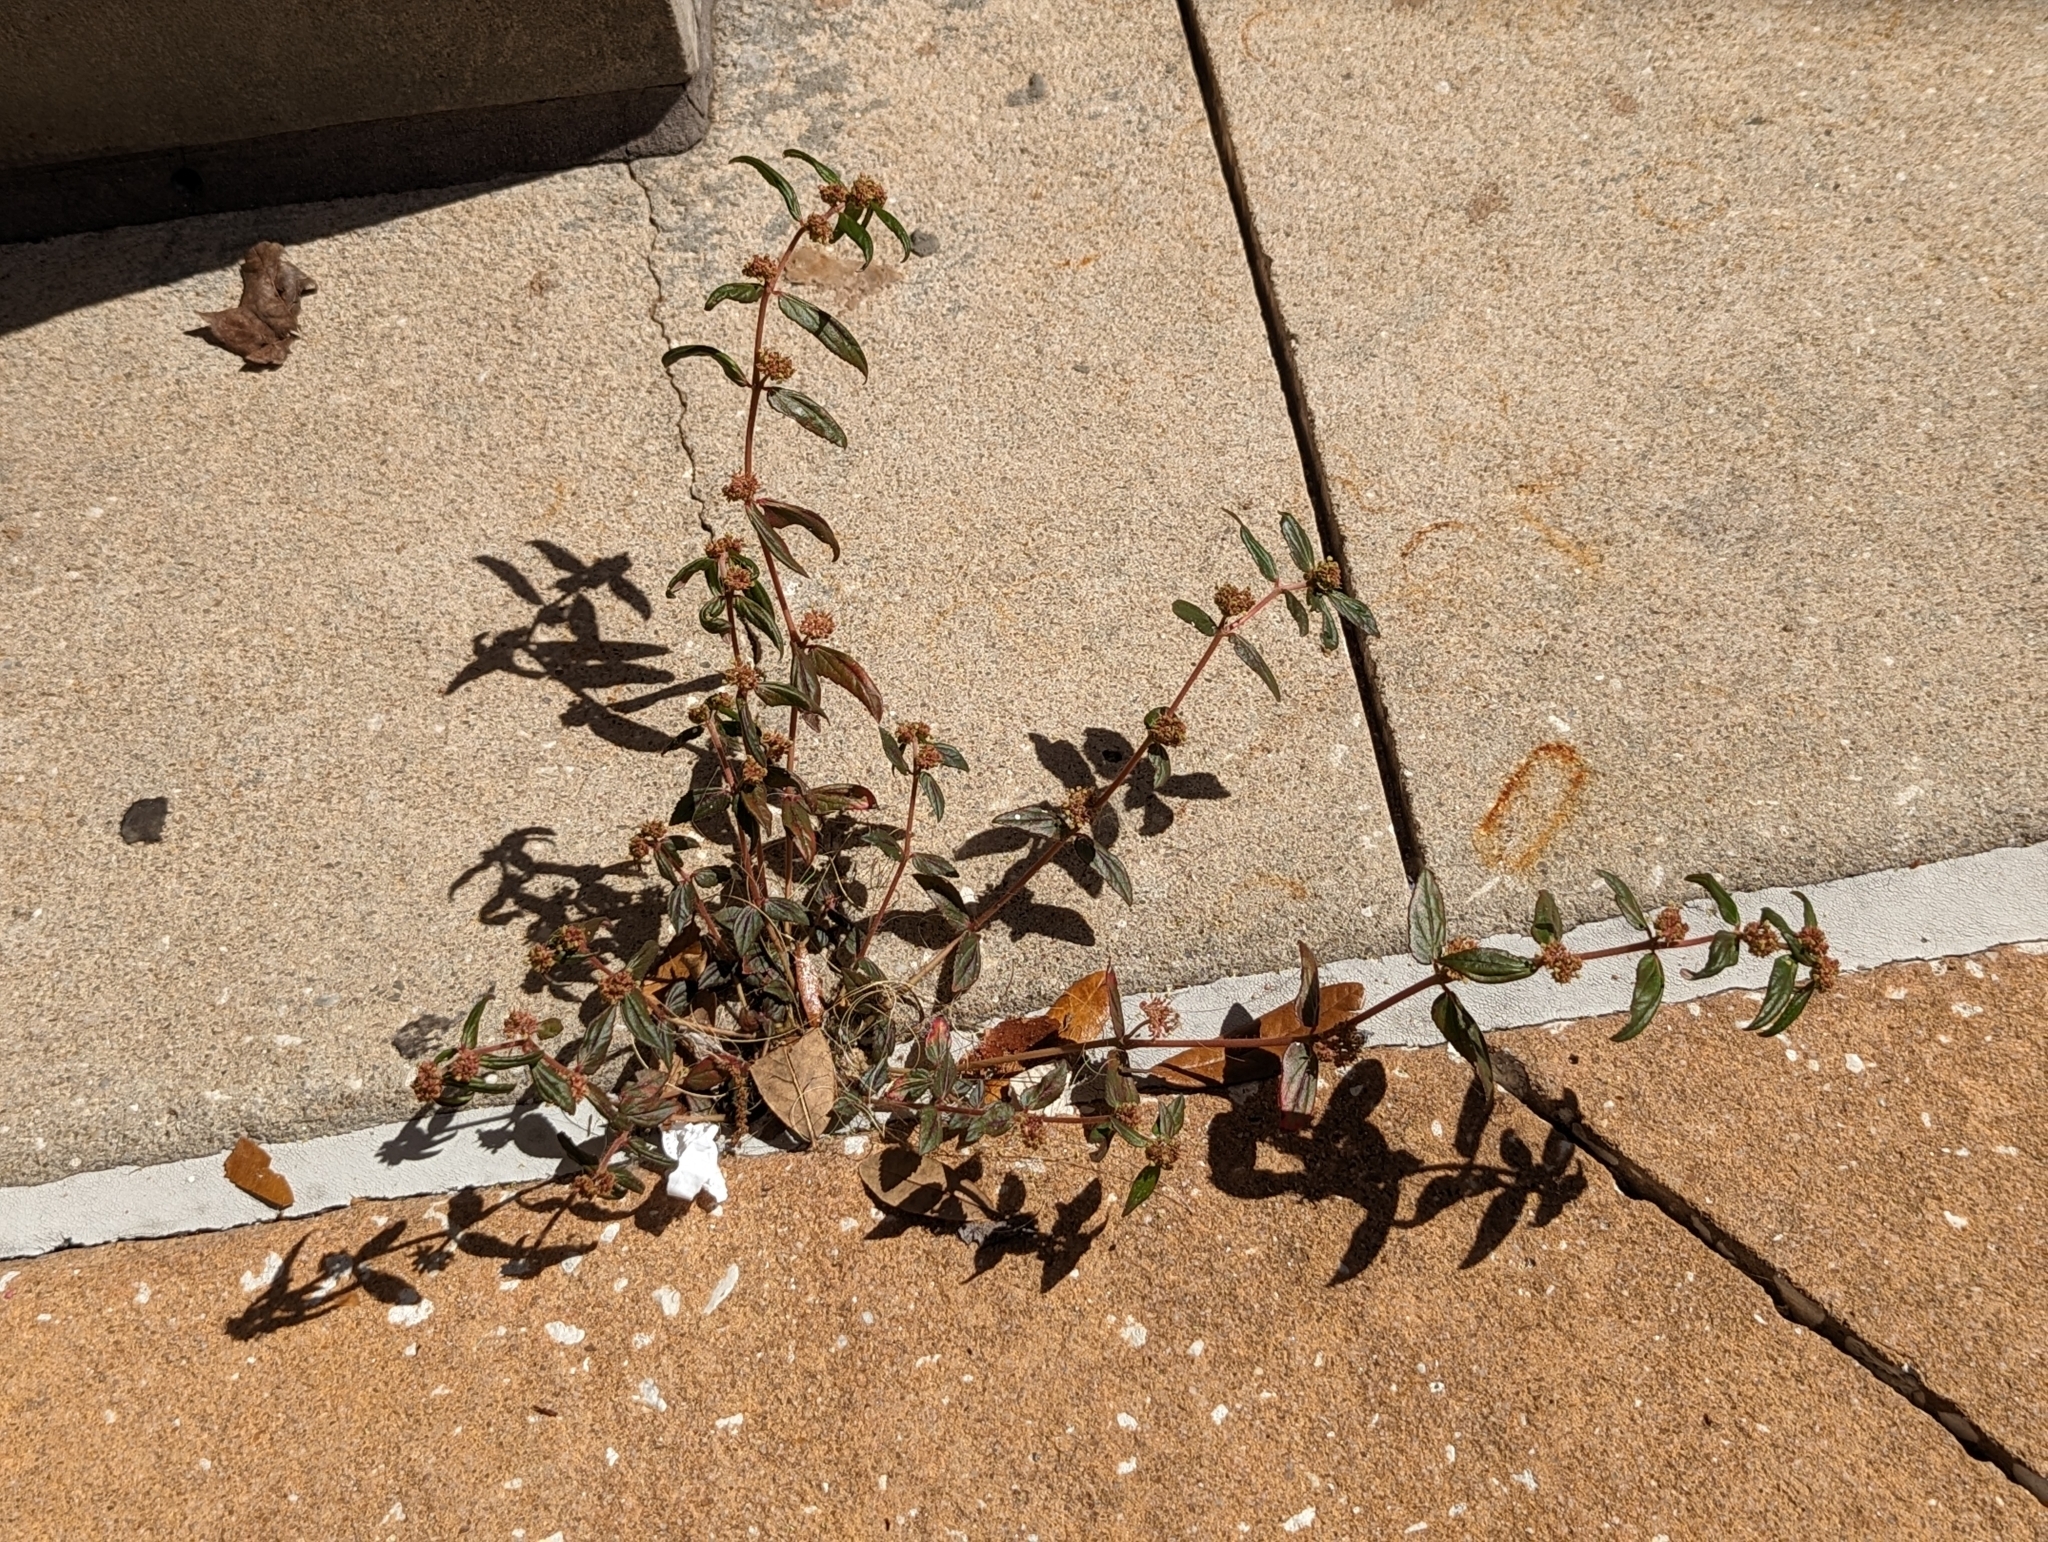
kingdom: Plantae
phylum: Tracheophyta
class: Magnoliopsida
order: Malpighiales
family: Euphorbiaceae
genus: Euphorbia
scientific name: Euphorbia hirta
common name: Pillpod sandmat
